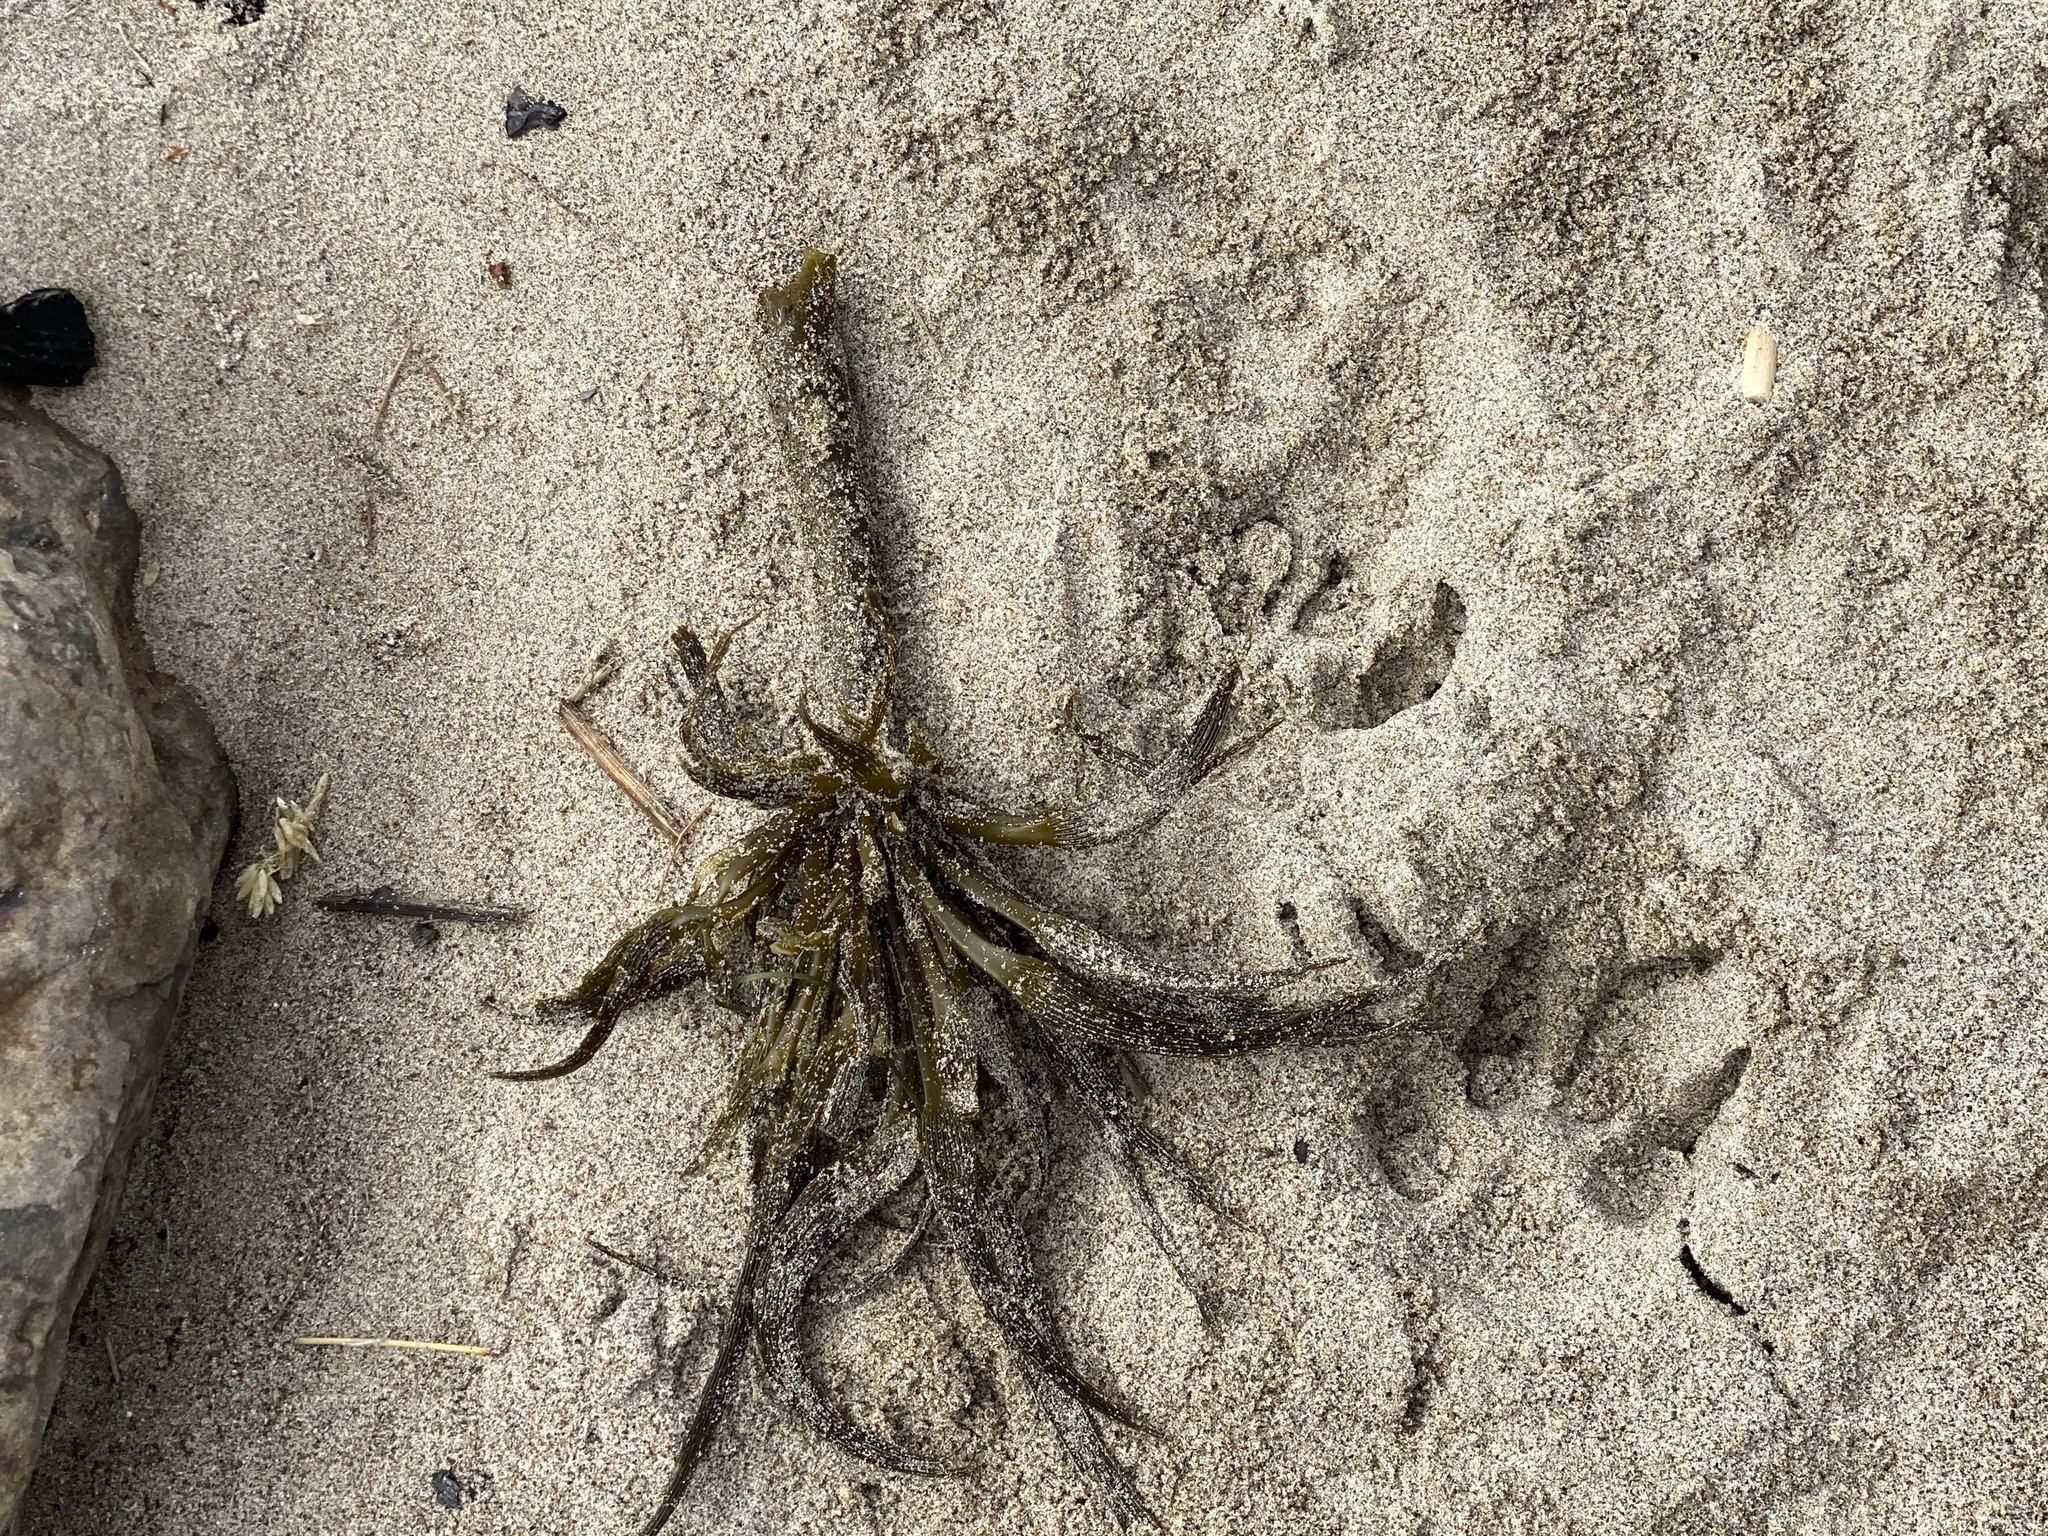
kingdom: Chromista
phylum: Ochrophyta
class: Phaeophyceae
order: Laminariales
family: Laminariaceae
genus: Postelsia
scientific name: Postelsia palmiformis
